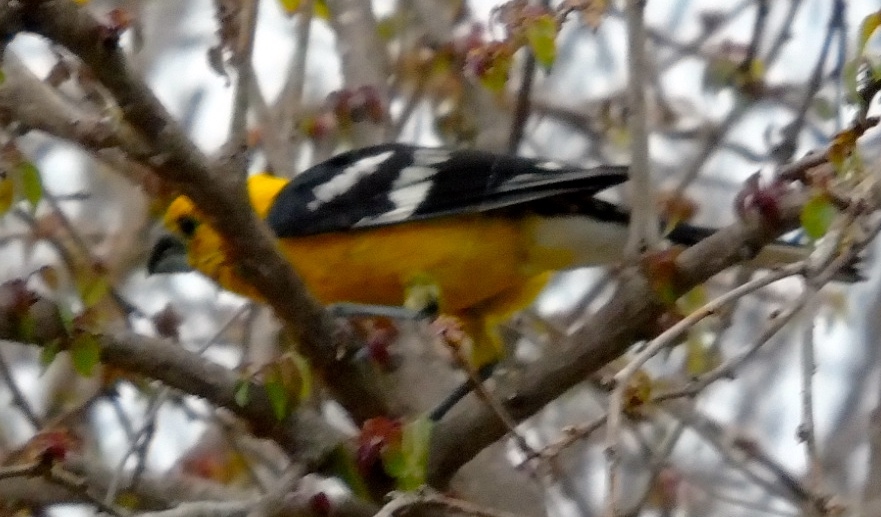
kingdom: Animalia
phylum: Chordata
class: Aves
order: Passeriformes
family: Cardinalidae
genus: Pheucticus
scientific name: Pheucticus chrysopeplus
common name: Yellow grosbeak
